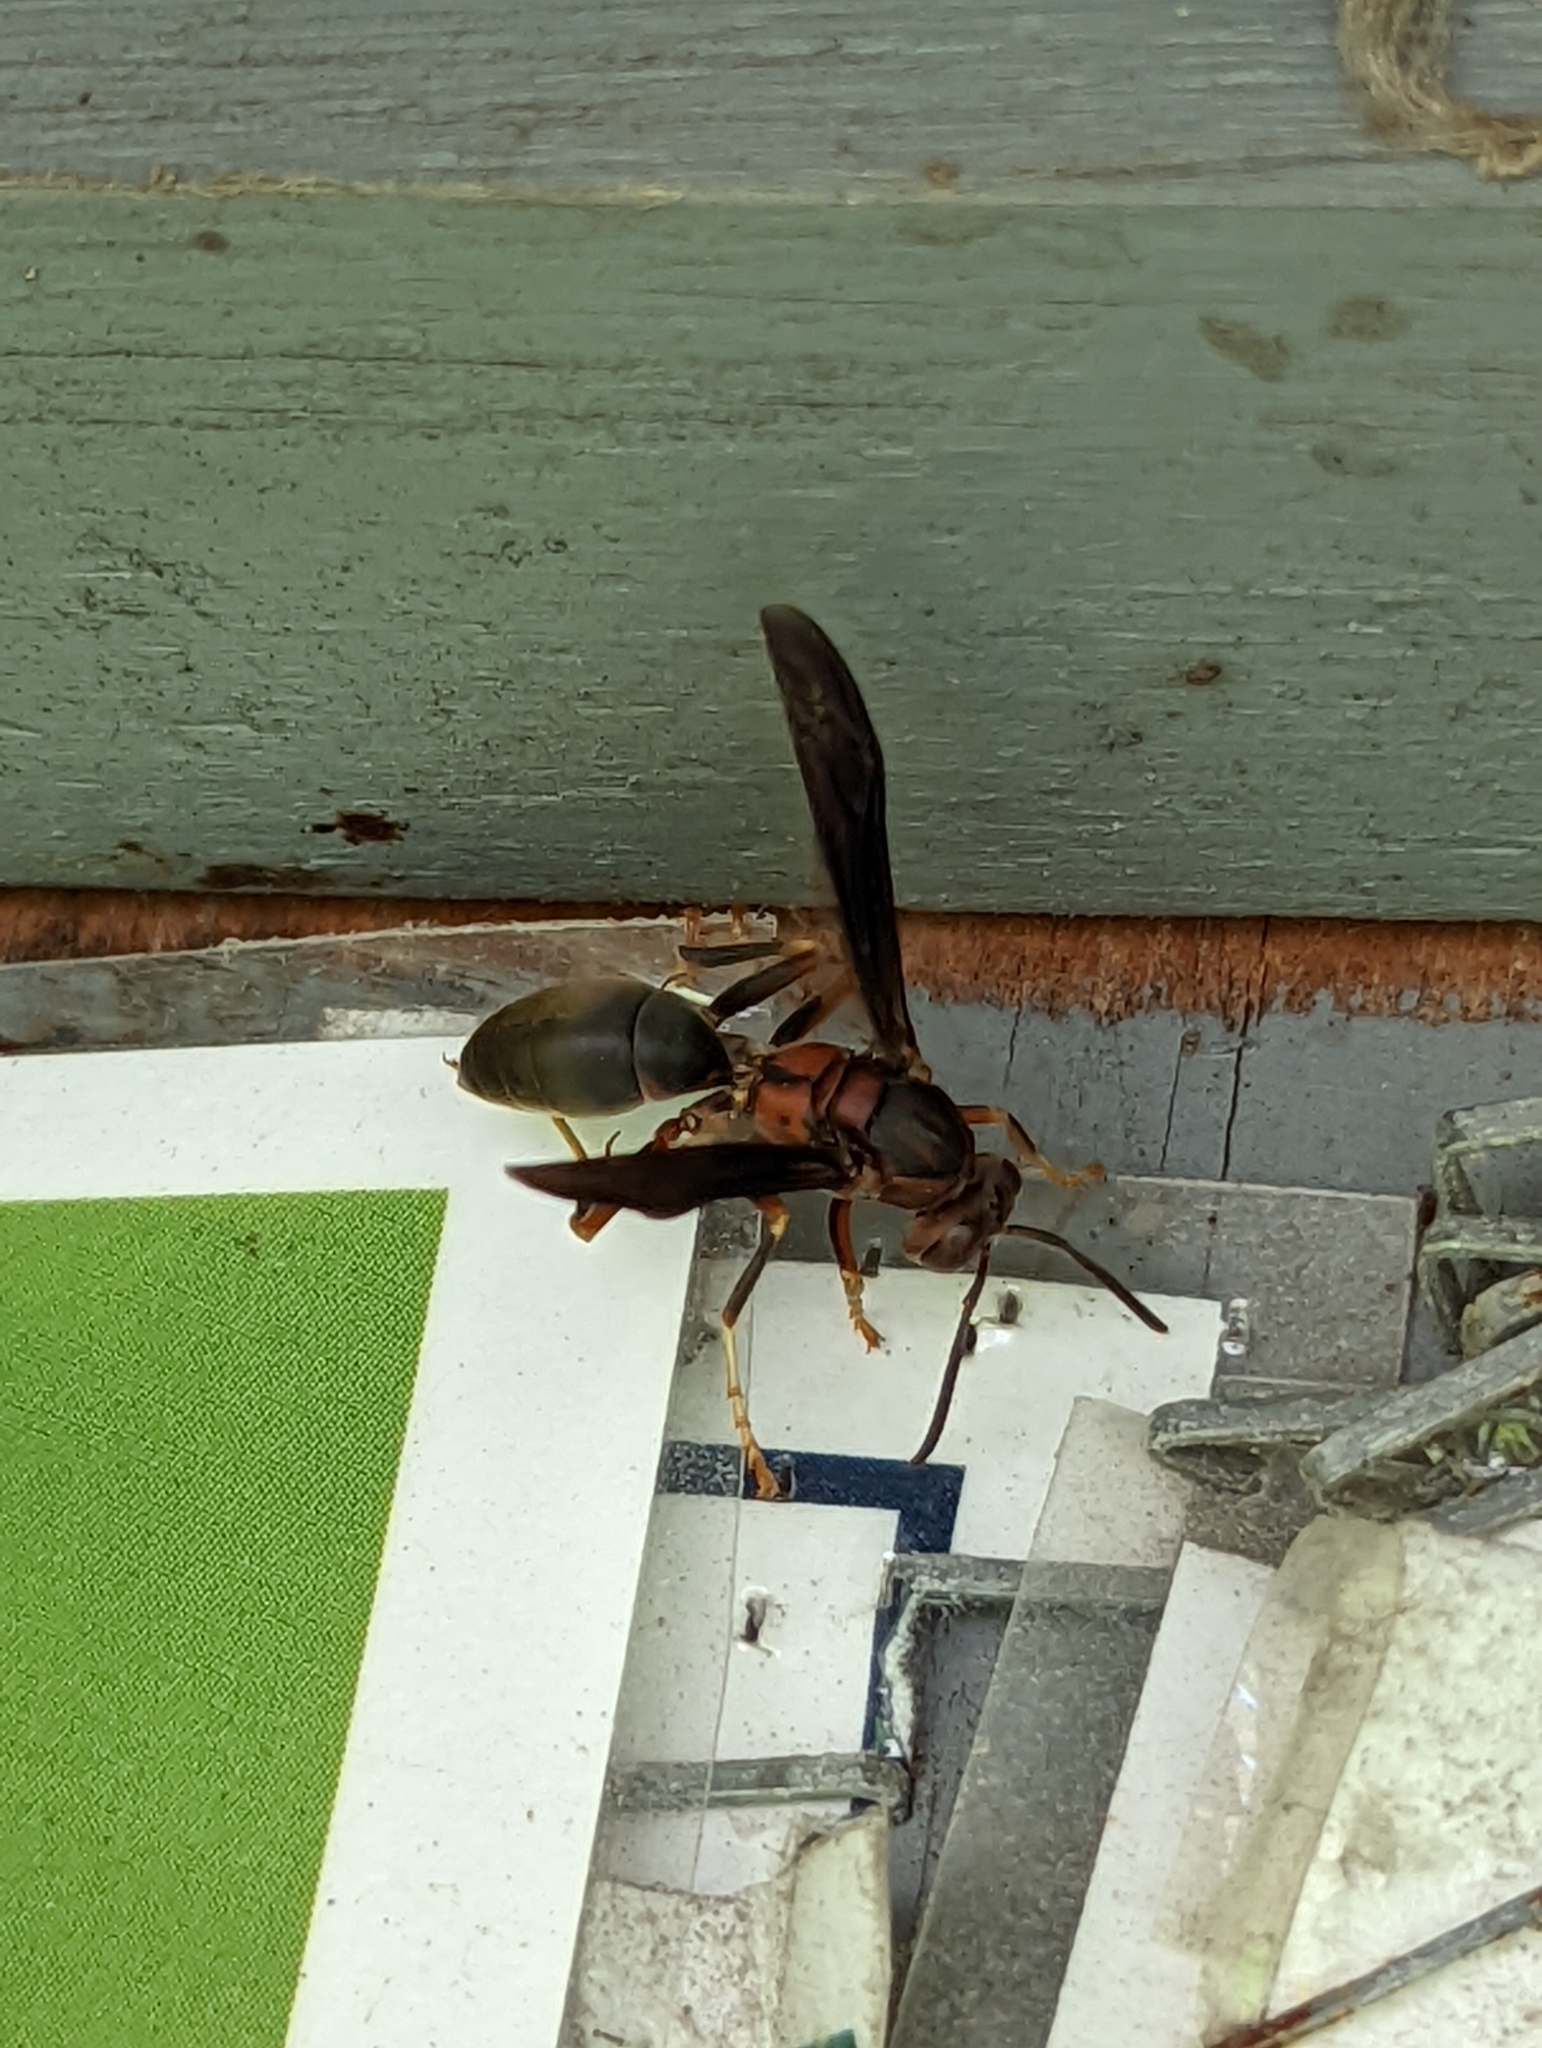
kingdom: Animalia
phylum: Arthropoda
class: Insecta
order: Hymenoptera
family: Eumenidae
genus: Polistes
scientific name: Polistes metricus
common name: Metric paper wasp
